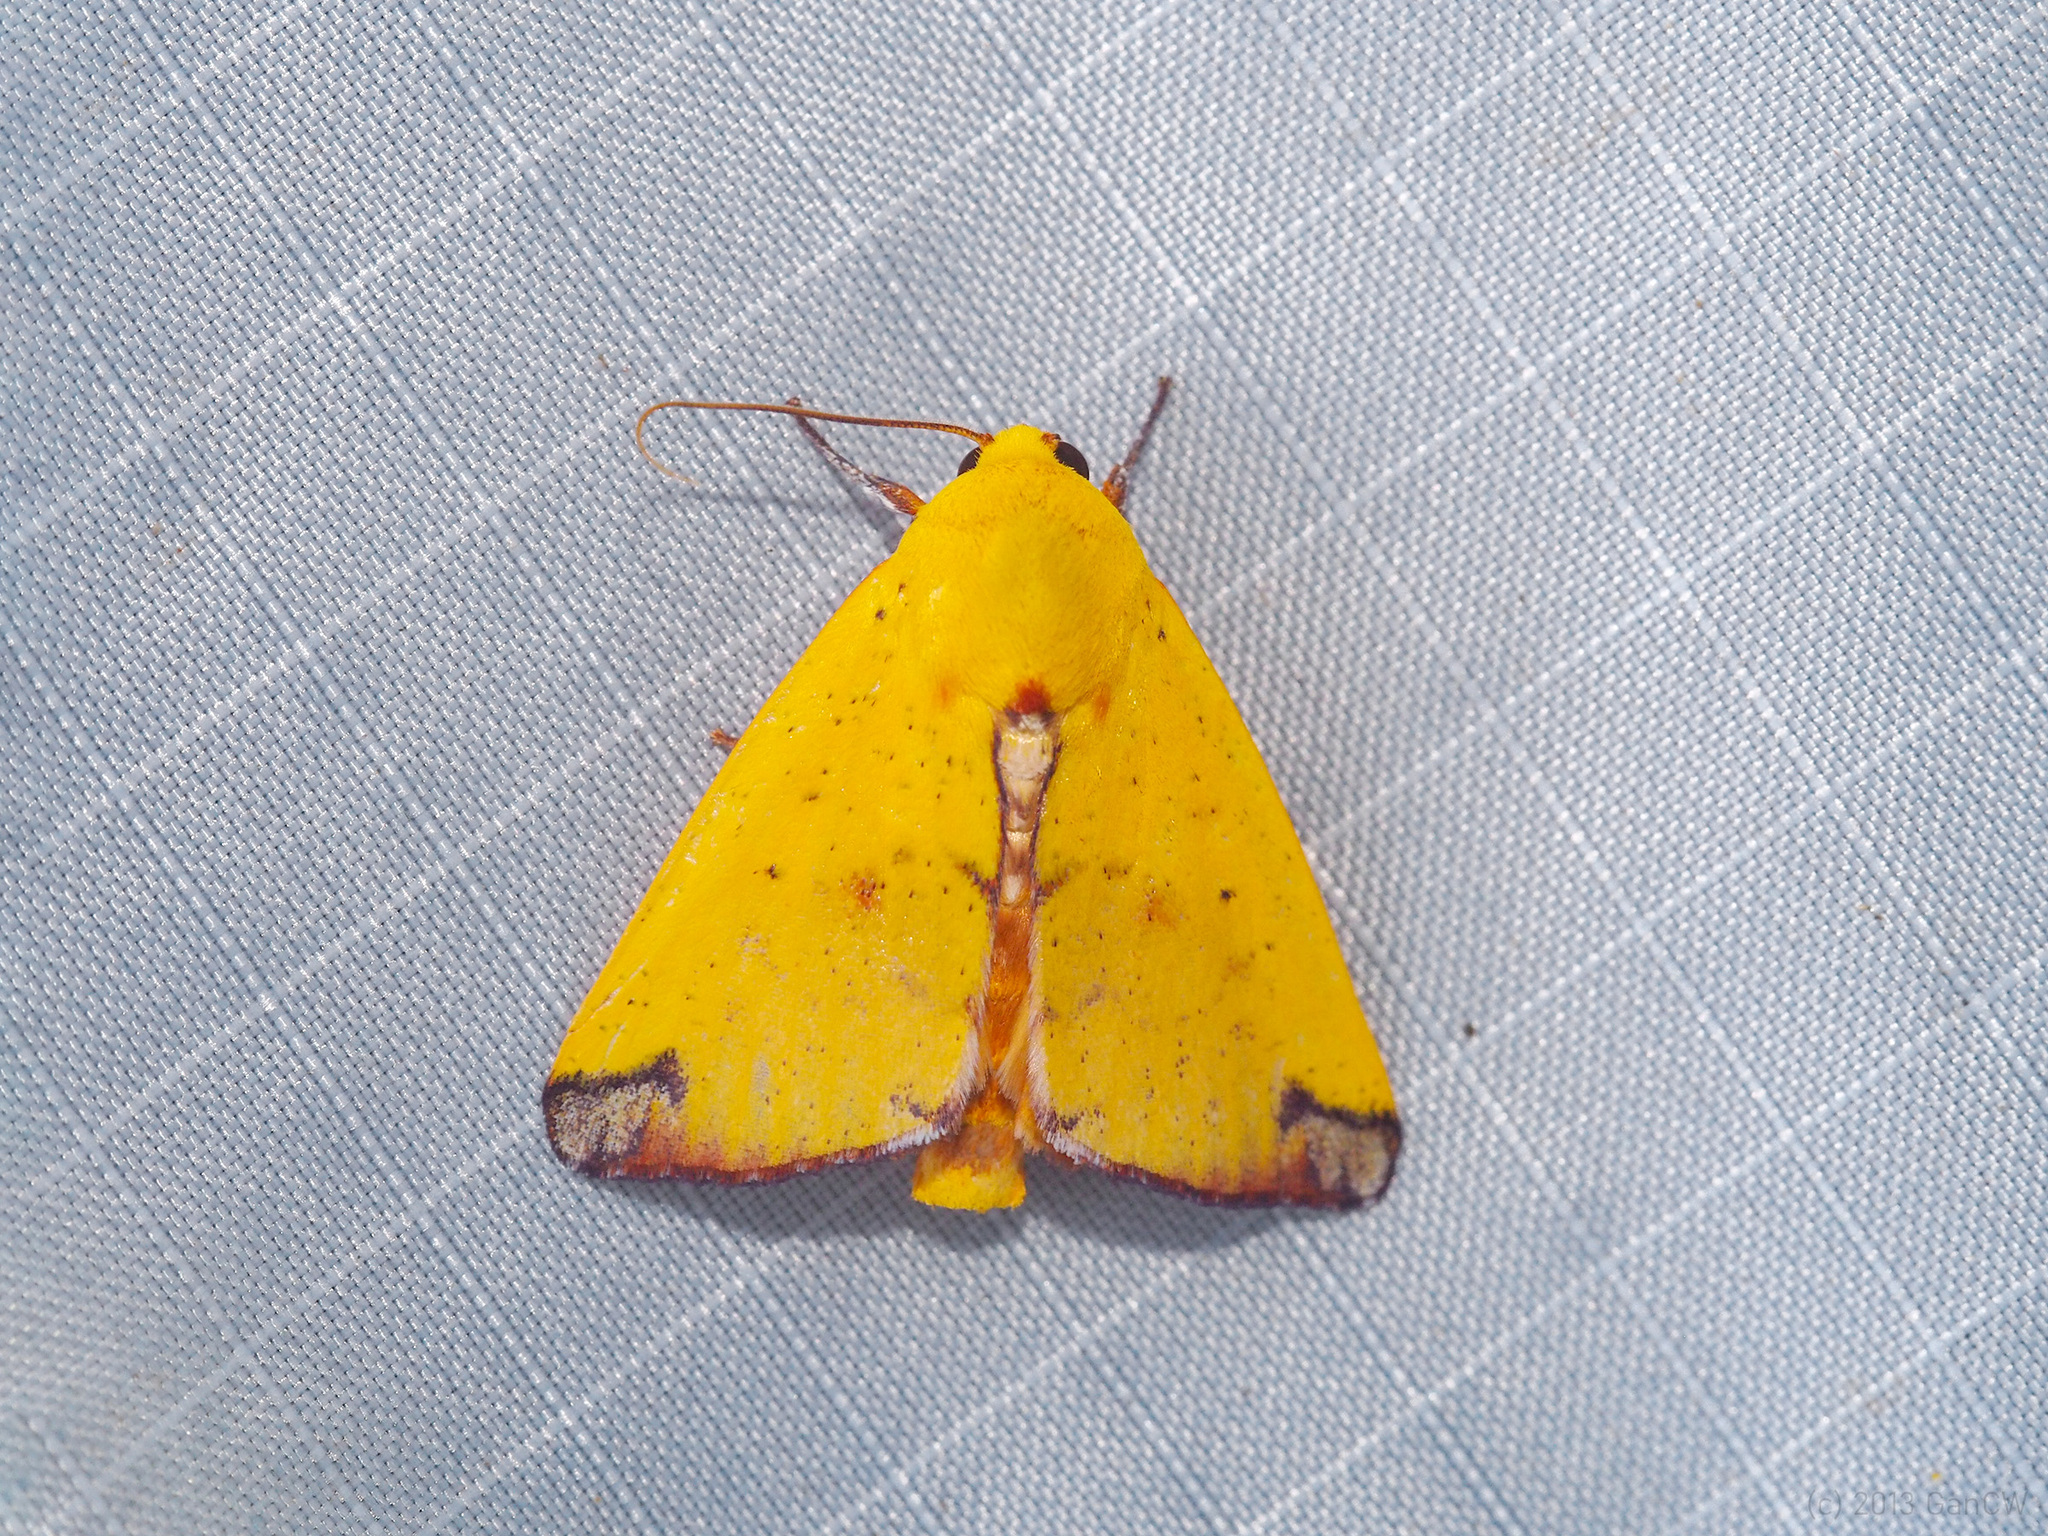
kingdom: Animalia
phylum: Arthropoda
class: Insecta
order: Lepidoptera
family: Nolidae
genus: Xenochroa
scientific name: Xenochroa xanthia
